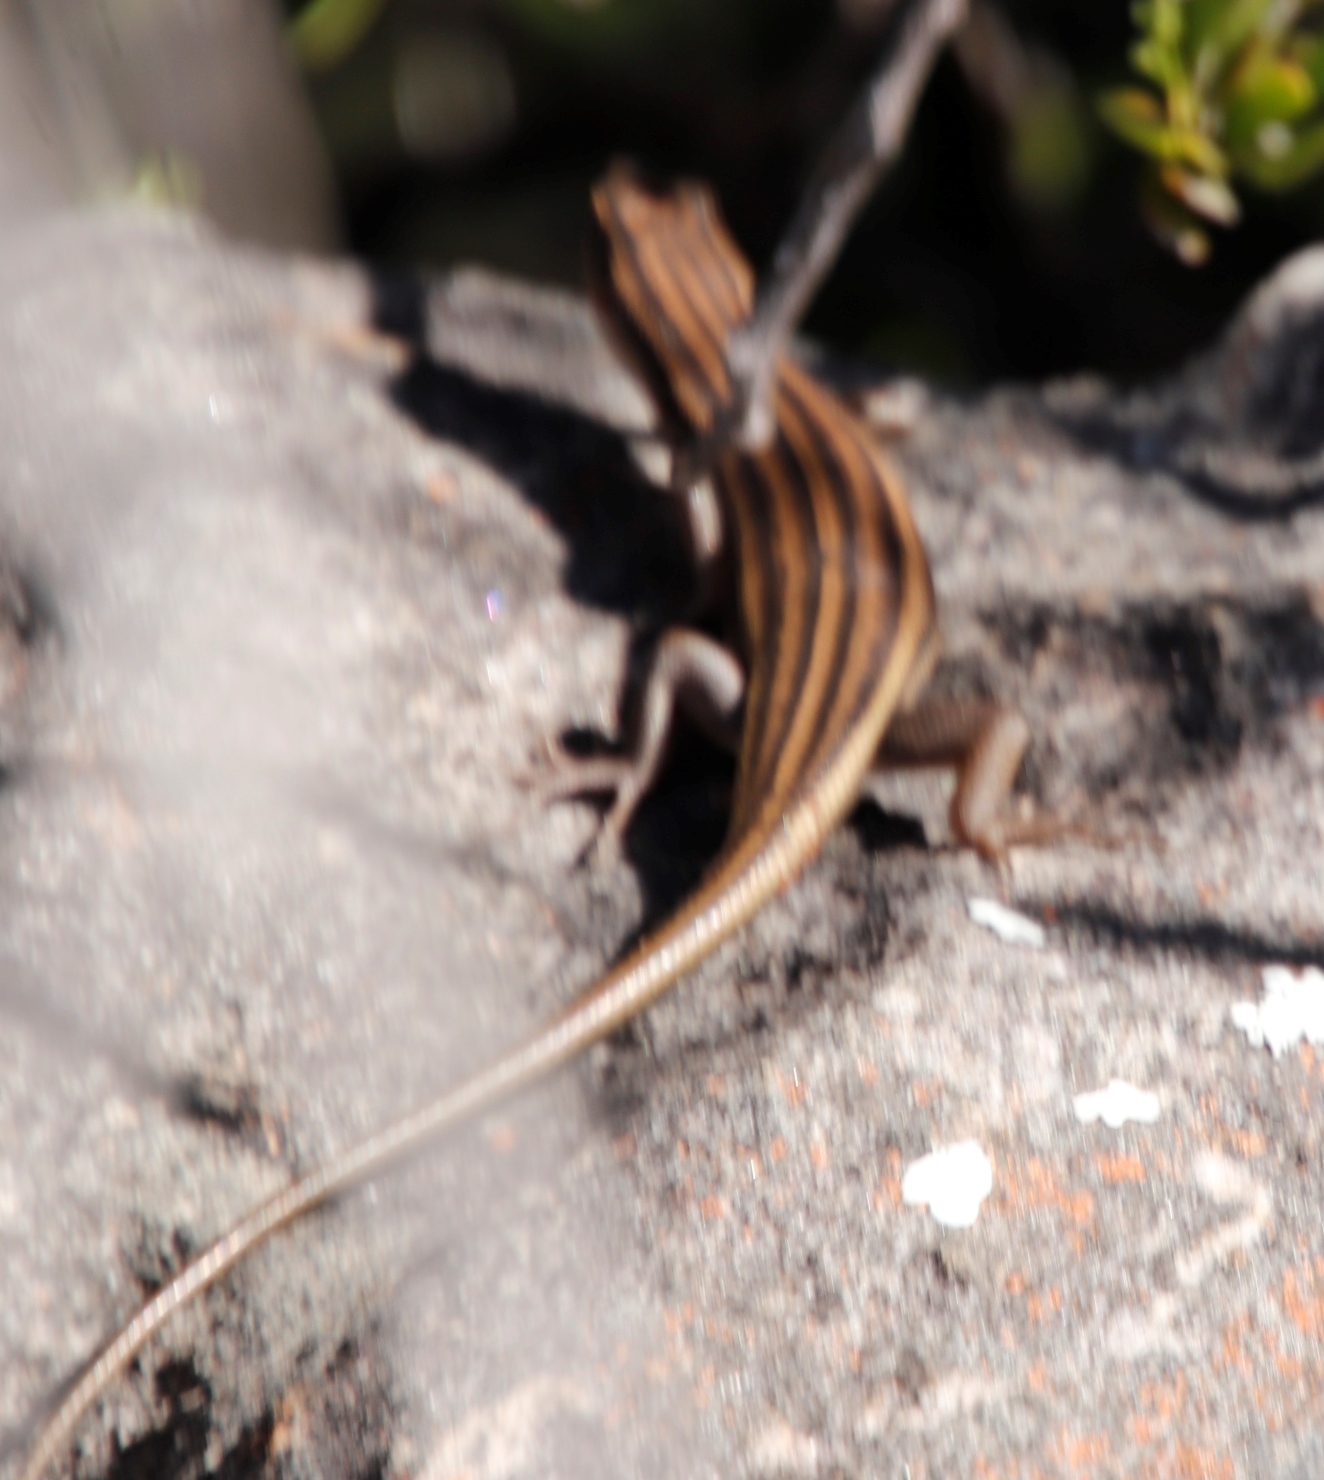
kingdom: Animalia
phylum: Chordata
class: Squamata
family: Scincidae
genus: Trachylepis
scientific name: Trachylepis sulcata
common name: Western rock skink
